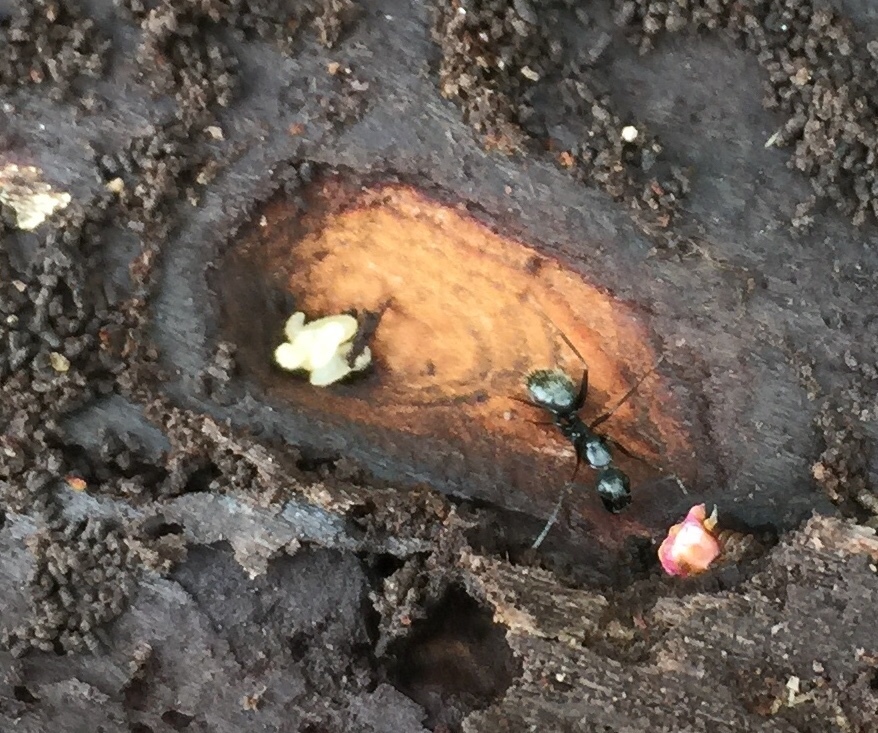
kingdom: Animalia
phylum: Arthropoda
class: Insecta
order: Hymenoptera
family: Formicidae
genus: Camponotus
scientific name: Camponotus pennsylvanicus
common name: Black carpenter ant
